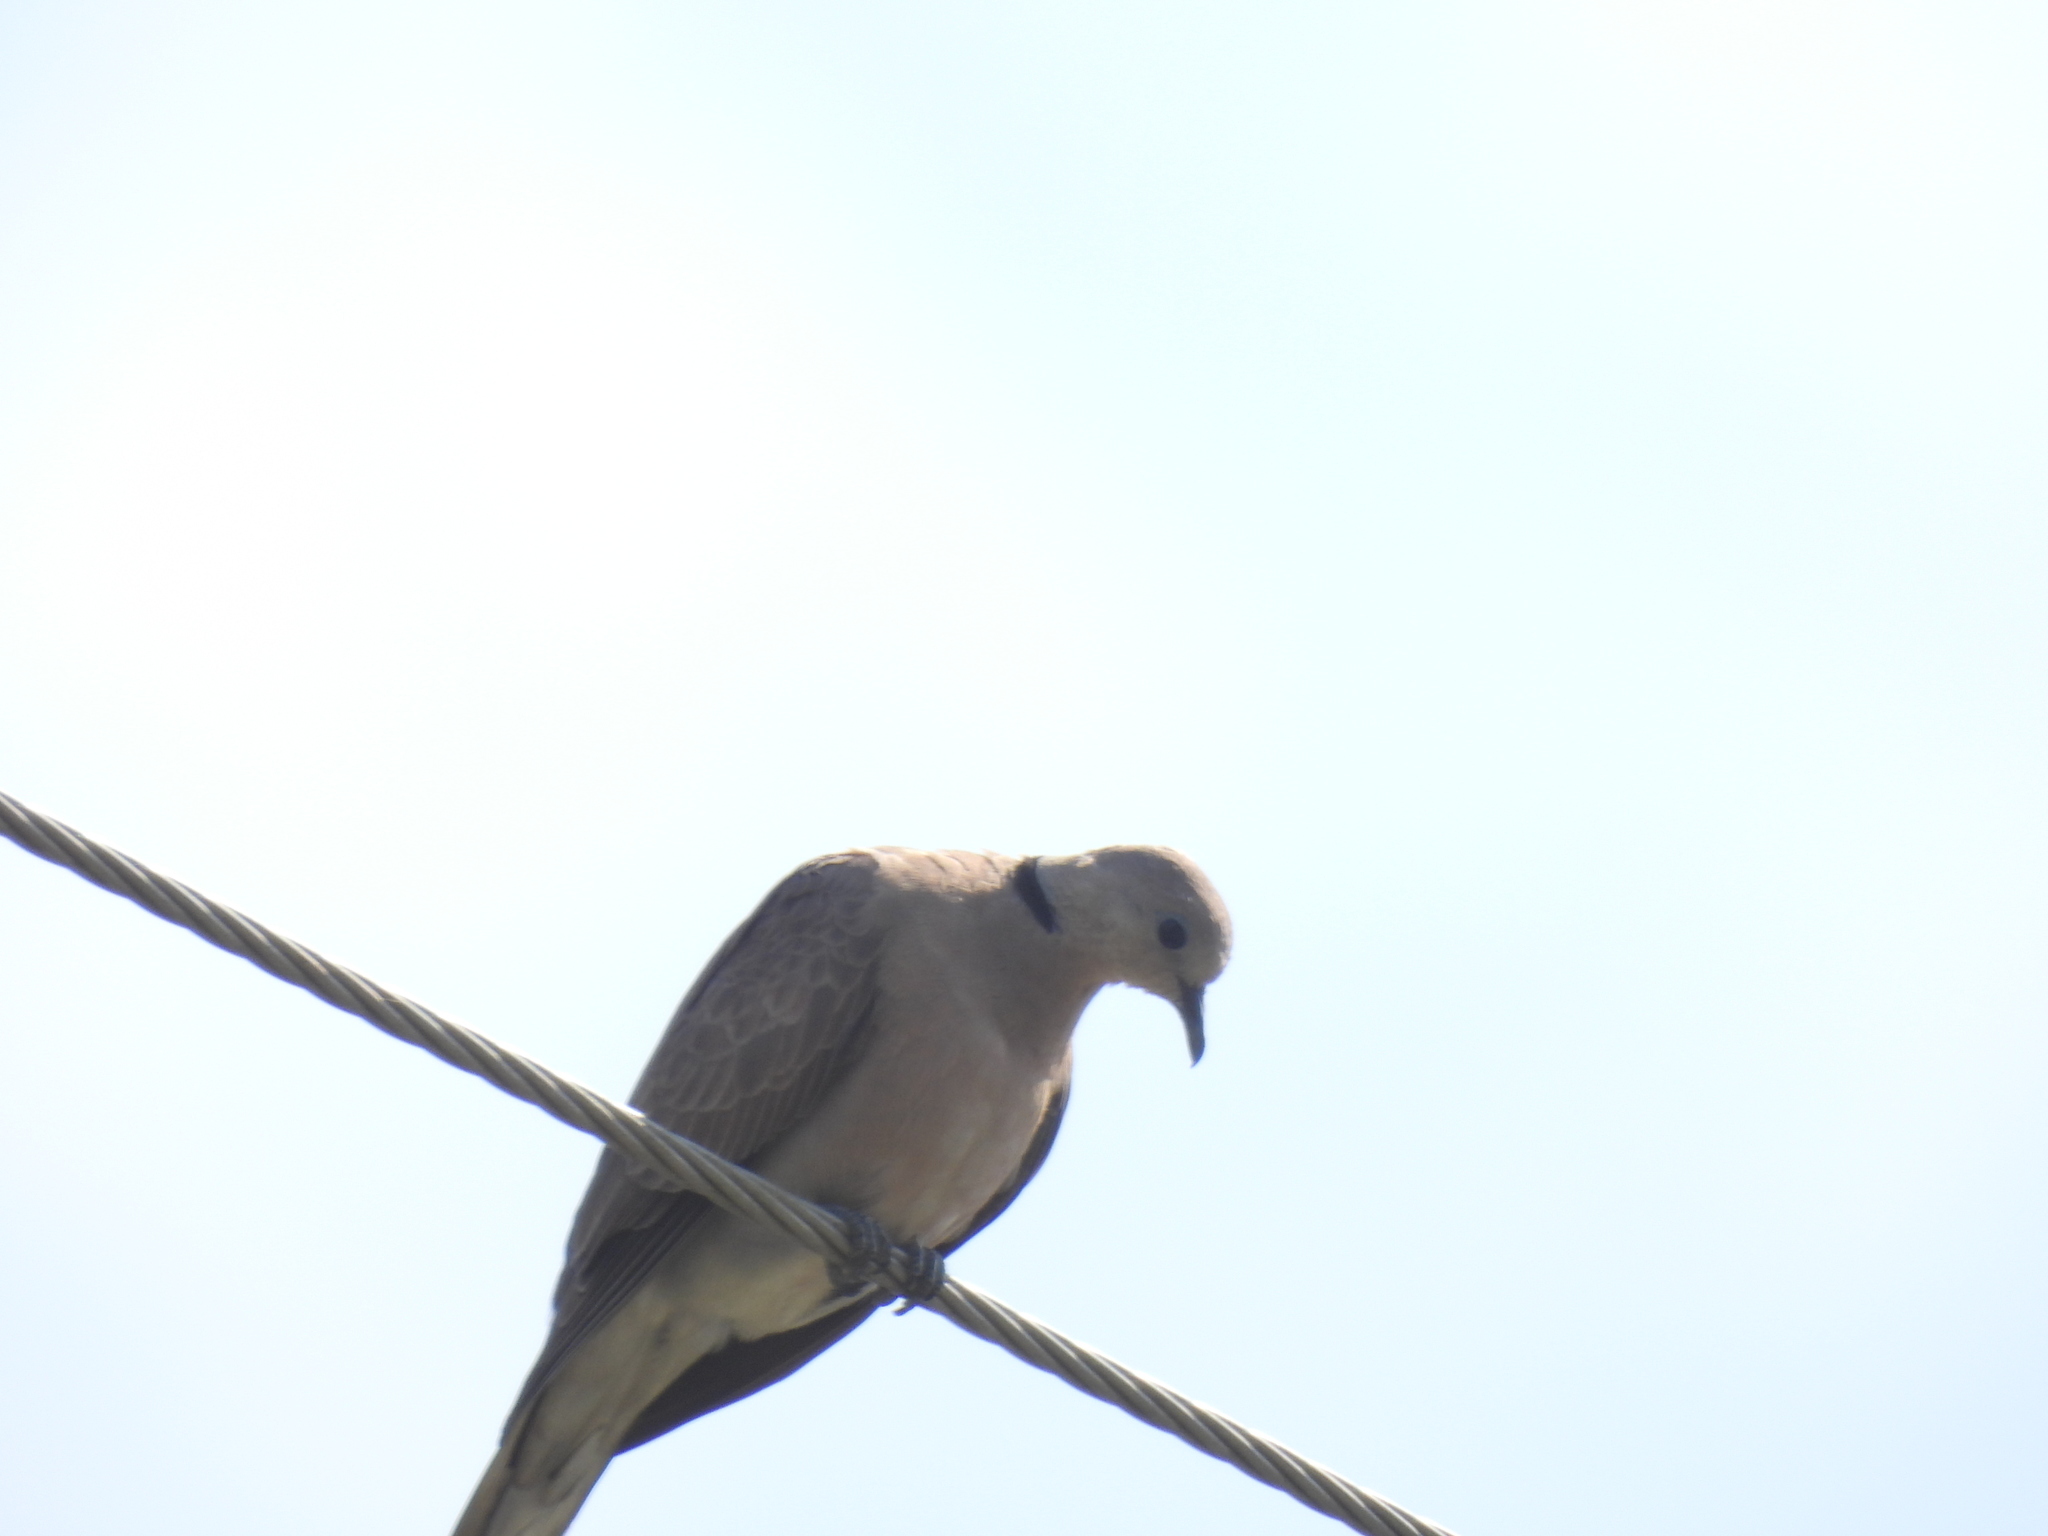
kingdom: Animalia
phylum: Chordata
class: Aves
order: Columbiformes
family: Columbidae
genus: Streptopelia
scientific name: Streptopelia tranquebarica
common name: Red turtle dove
